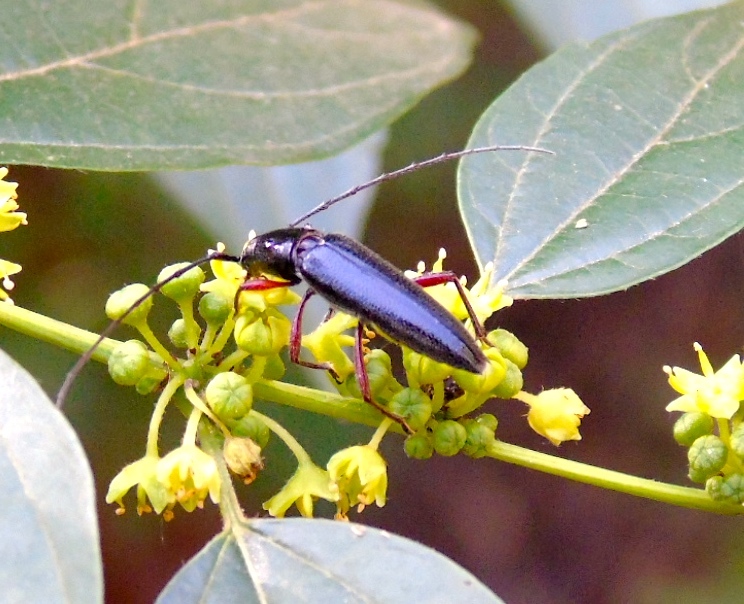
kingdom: Animalia
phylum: Arthropoda
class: Insecta
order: Coleoptera
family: Cerambycidae
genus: Stenosphenus
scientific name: Stenosphenus
